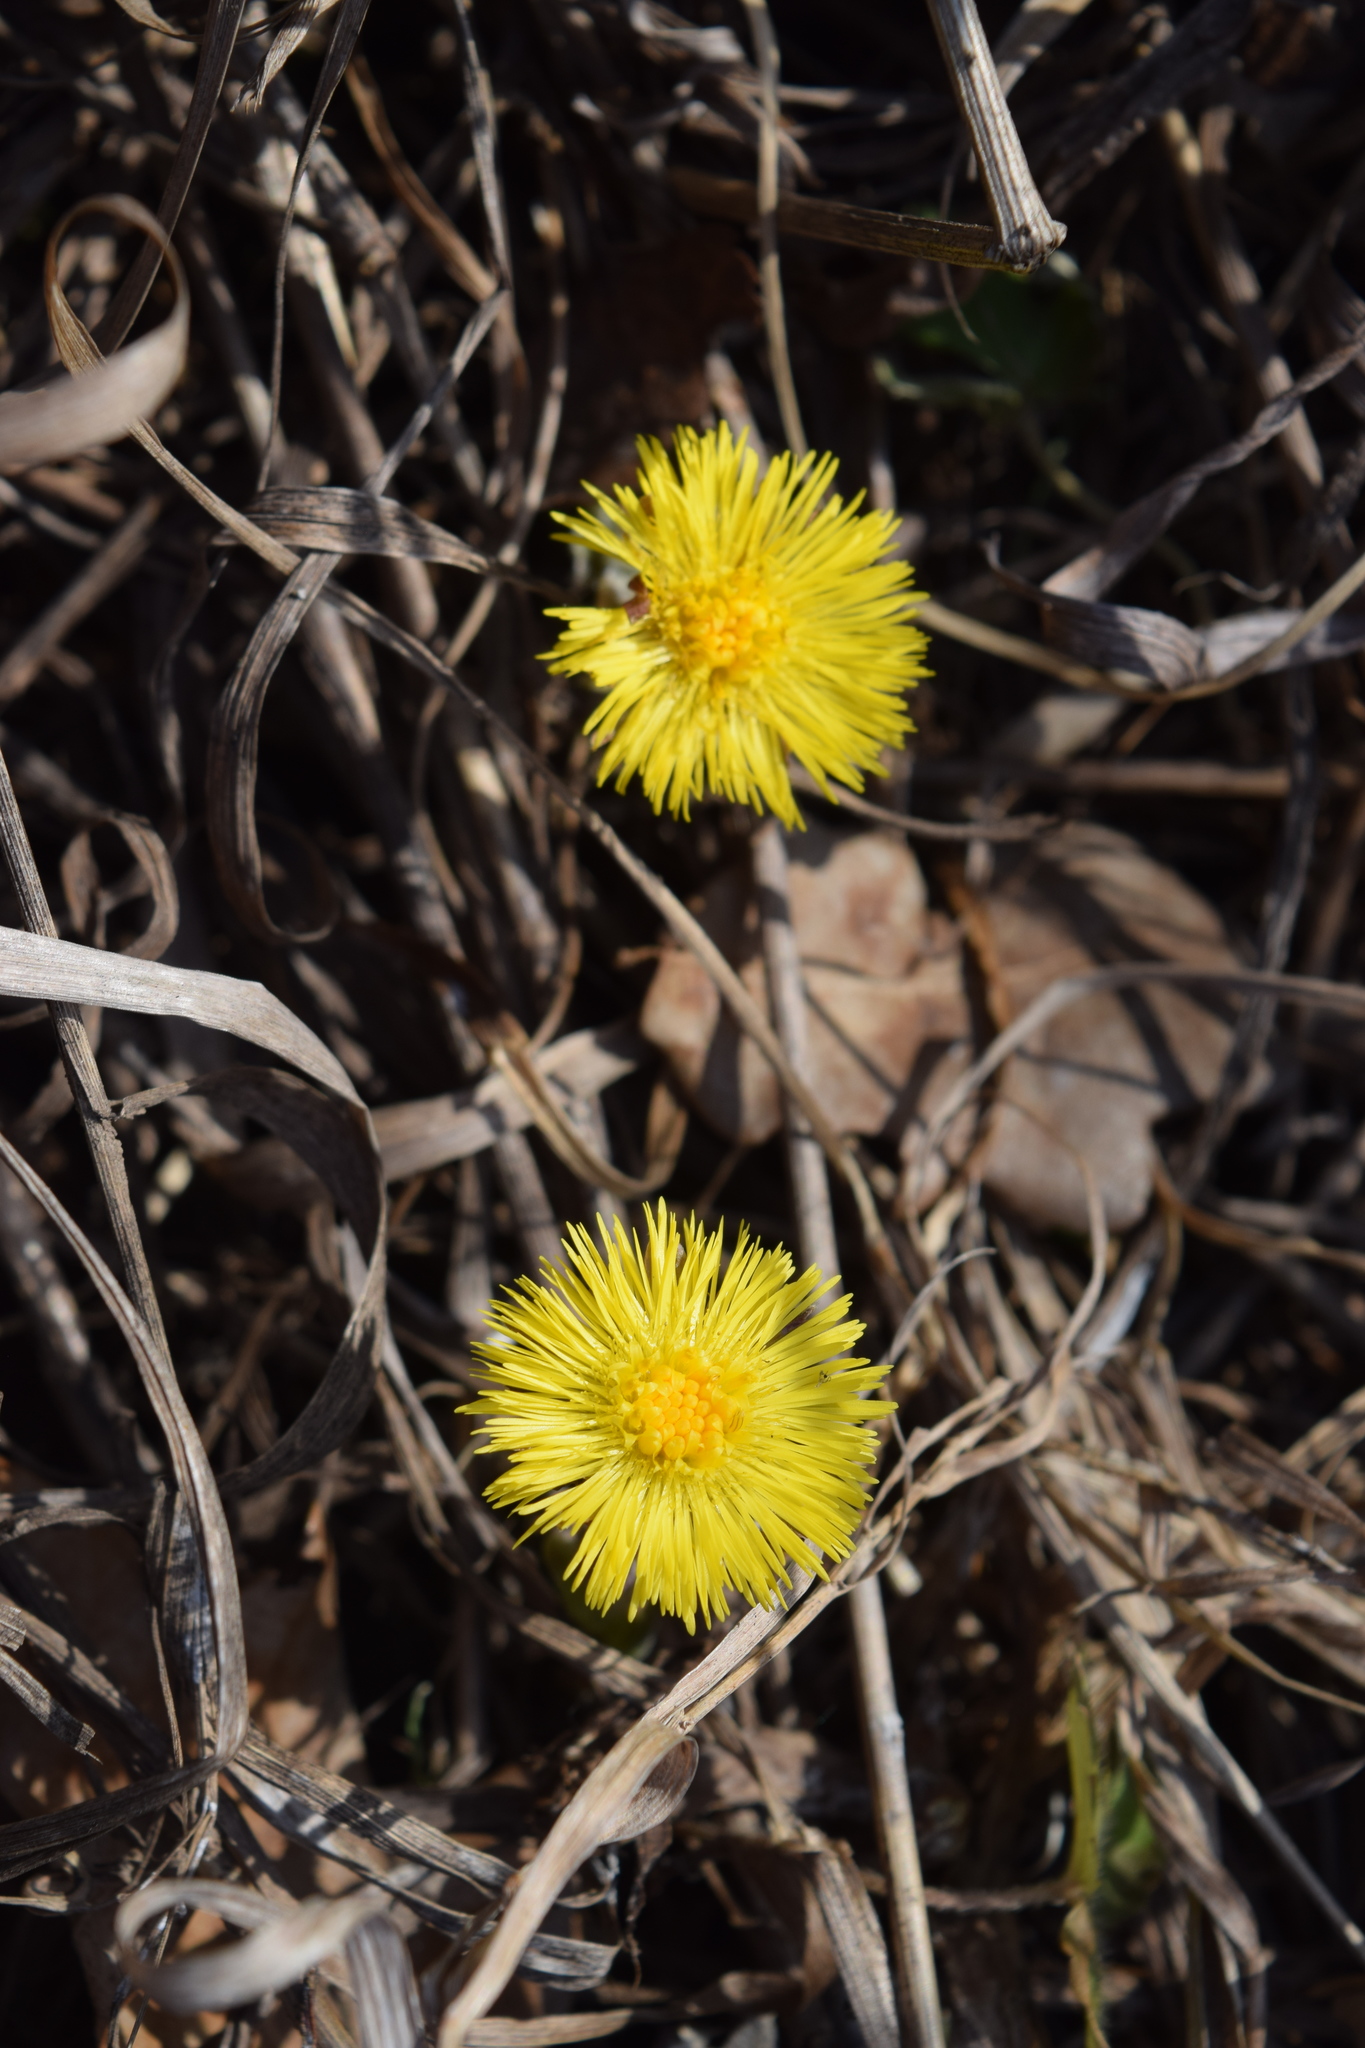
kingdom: Plantae
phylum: Tracheophyta
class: Magnoliopsida
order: Asterales
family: Asteraceae
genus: Tussilago
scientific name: Tussilago farfara
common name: Coltsfoot
